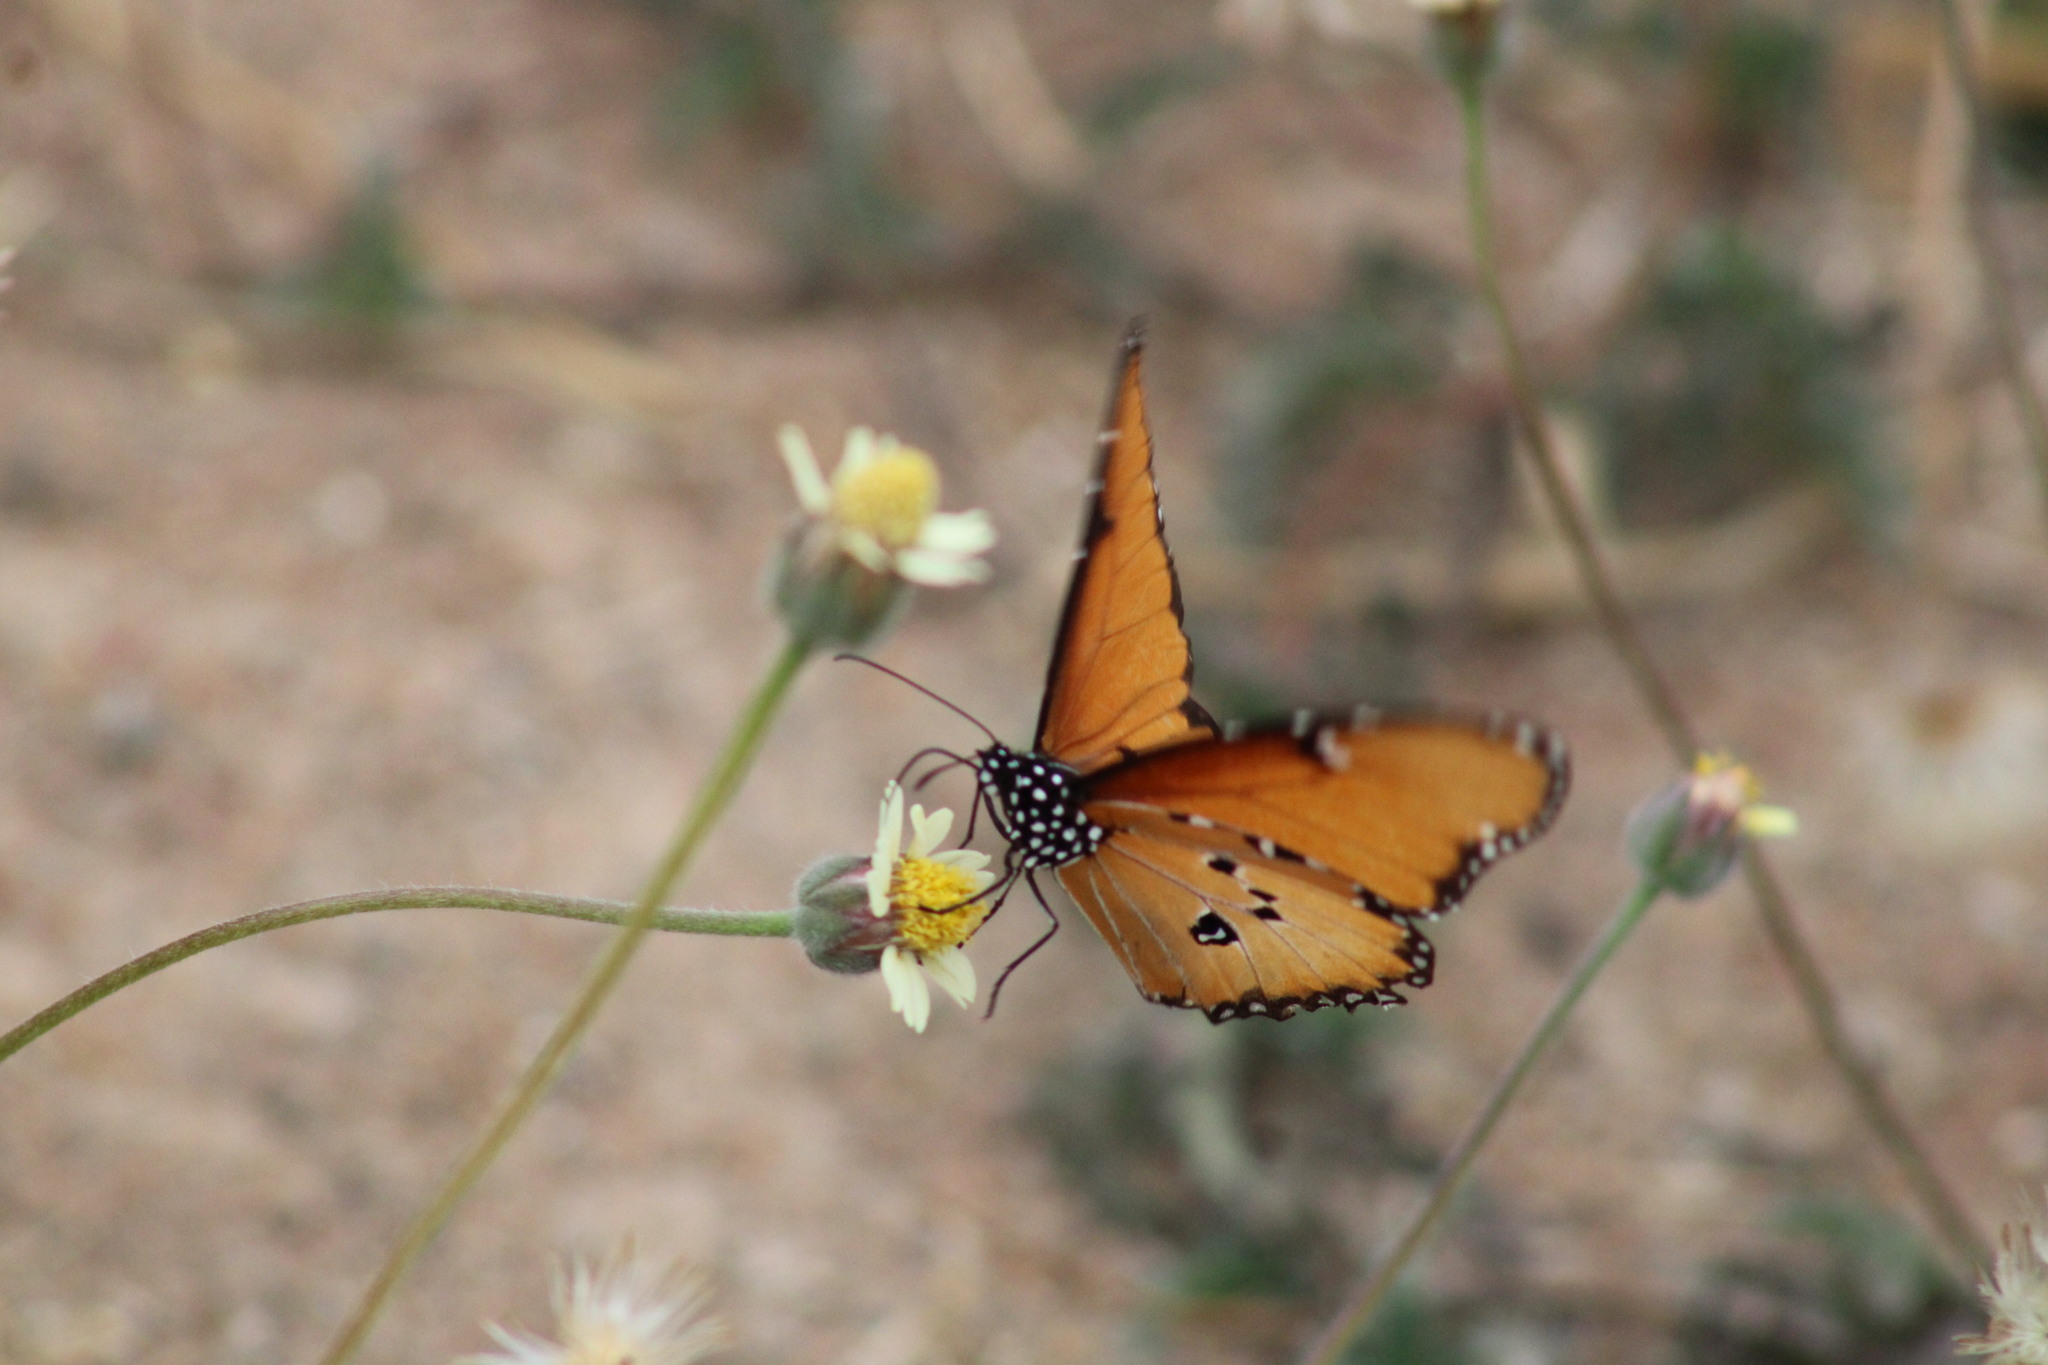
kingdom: Animalia
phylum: Arthropoda
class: Insecta
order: Lepidoptera
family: Nymphalidae
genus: Danaus
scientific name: Danaus chrysippus
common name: Plain tiger
